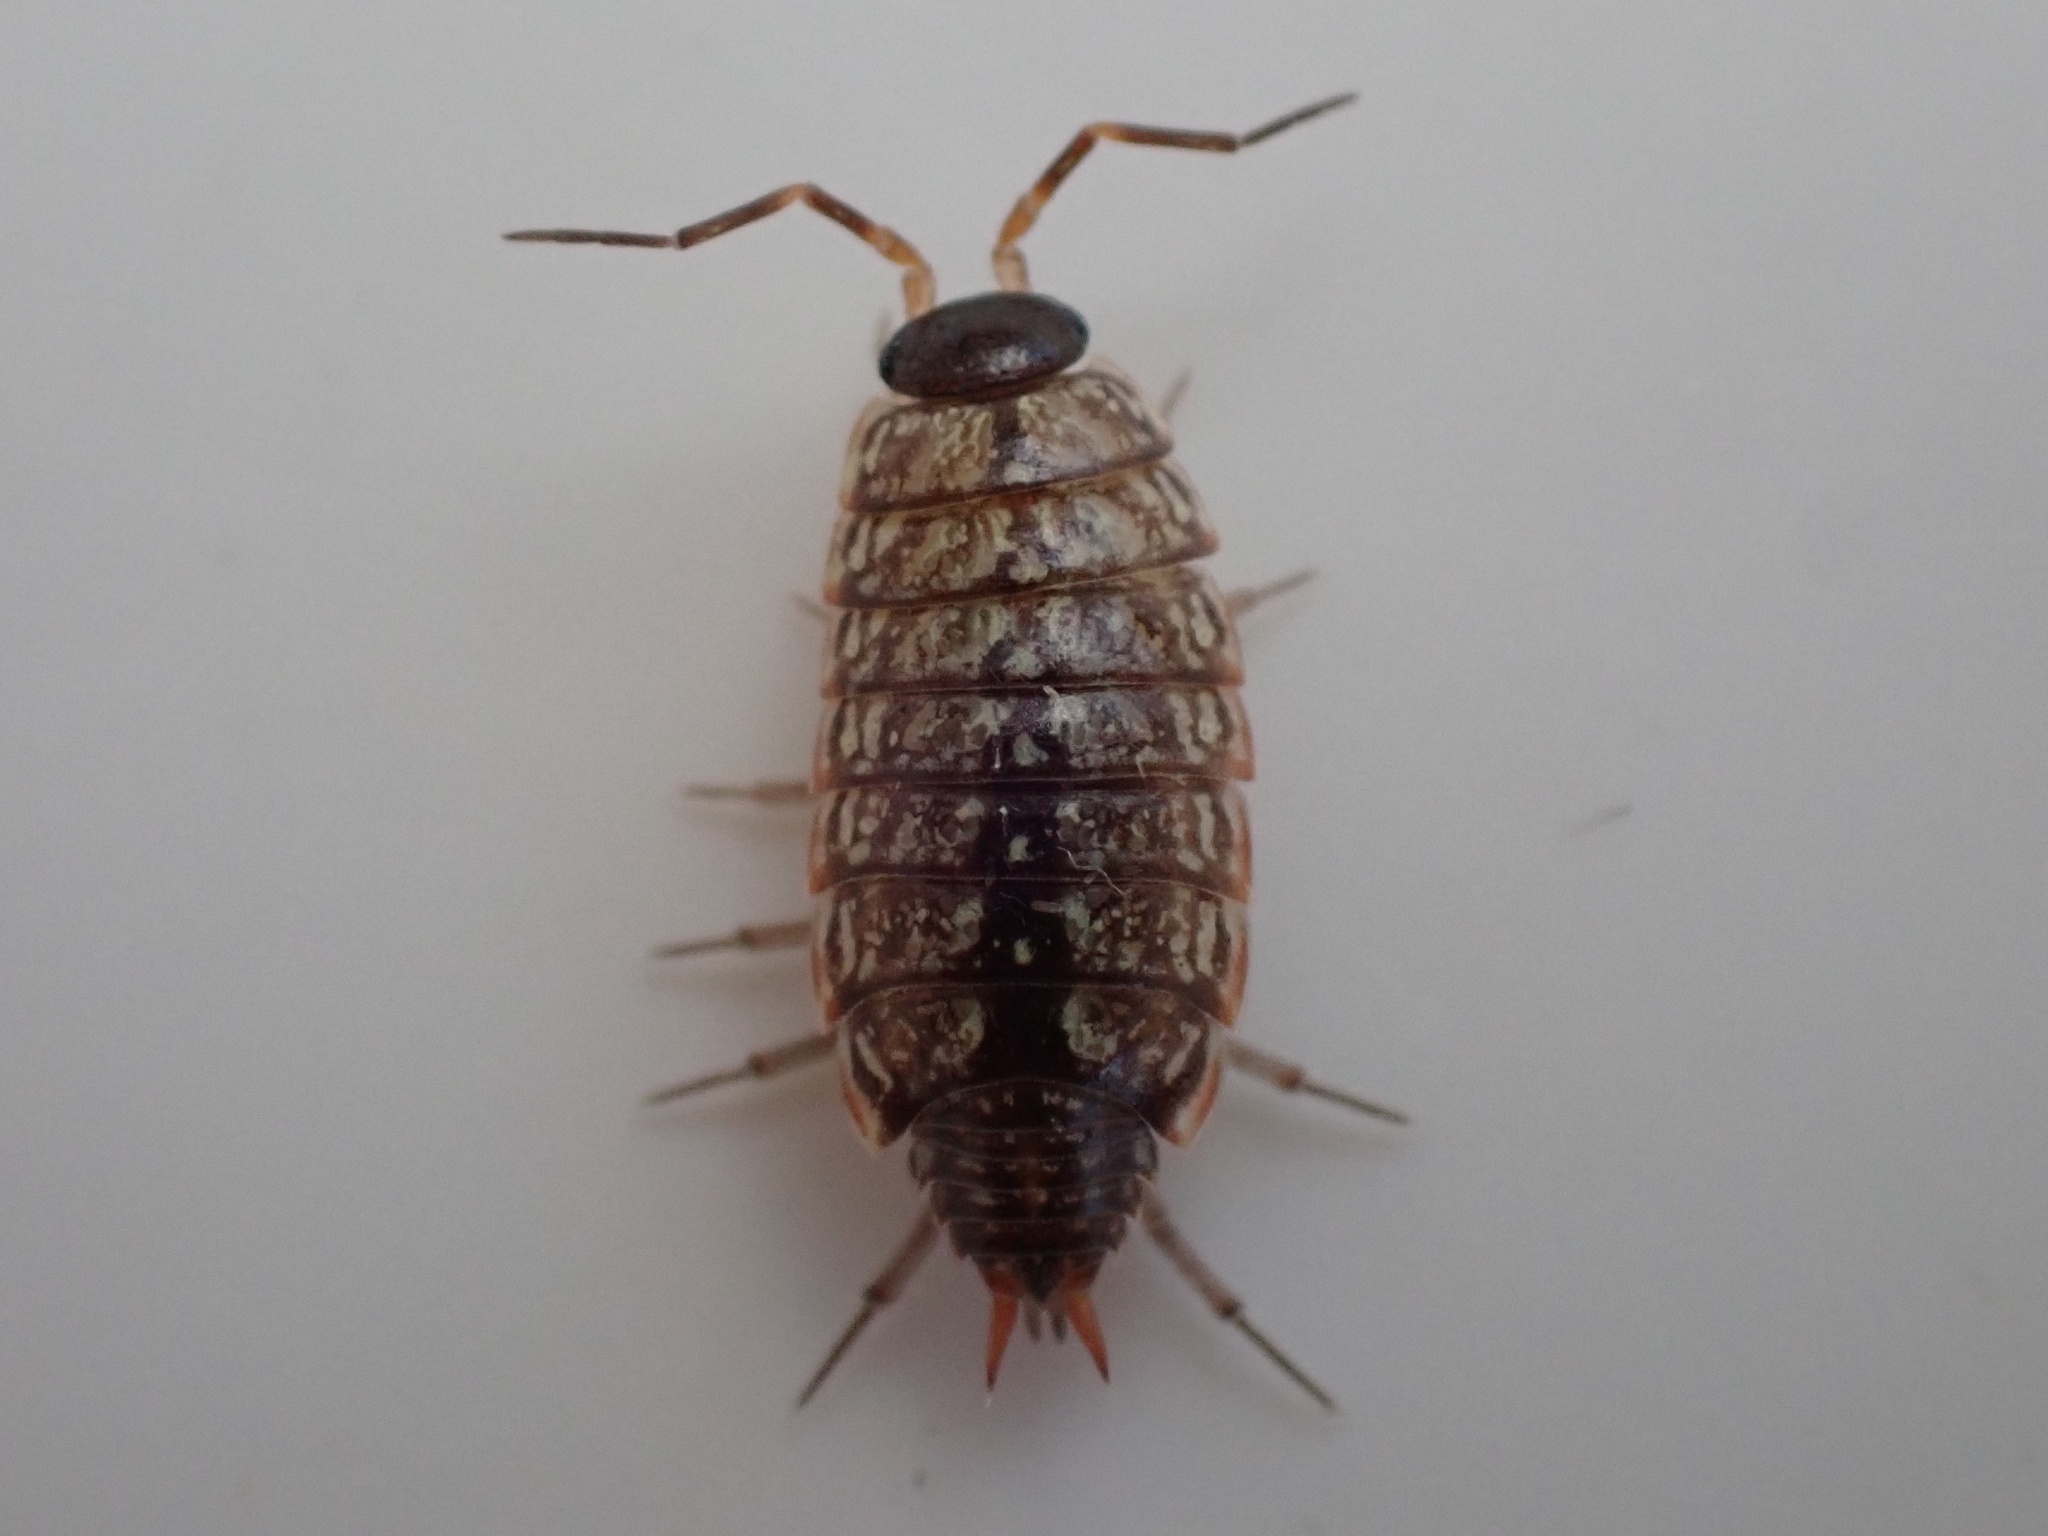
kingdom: Animalia
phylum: Arthropoda
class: Malacostraca
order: Isopoda
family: Philosciidae
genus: Philoscia
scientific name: Philoscia muscorum
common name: Common striped woodlouse
